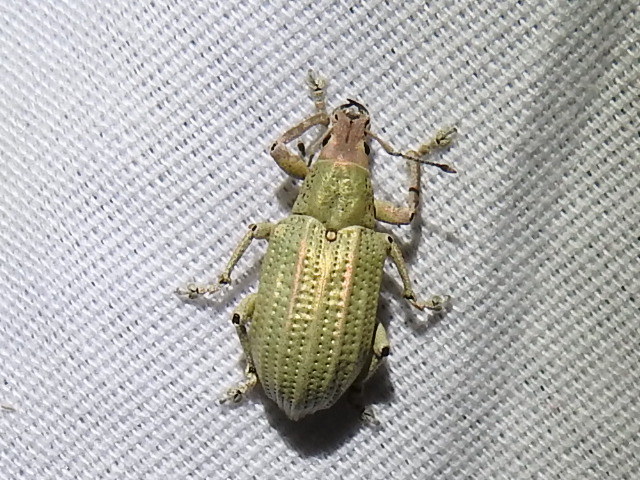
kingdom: Animalia
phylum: Arthropoda
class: Insecta
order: Coleoptera
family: Curculionidae
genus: Compsus
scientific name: Compsus auricephalus
